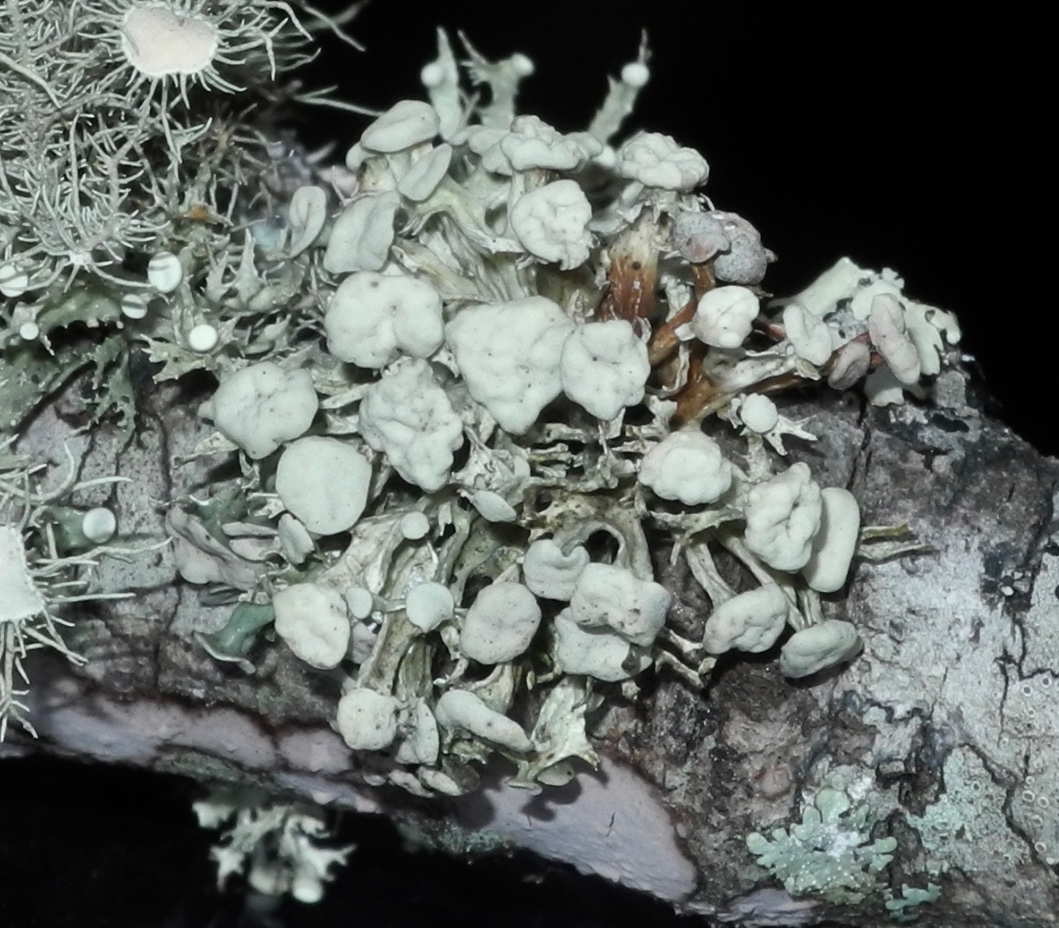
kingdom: Fungi
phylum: Ascomycota
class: Lecanoromycetes
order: Lecanorales
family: Ramalinaceae
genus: Ramalina
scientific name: Ramalina americana
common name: Sinewed bush lichen
